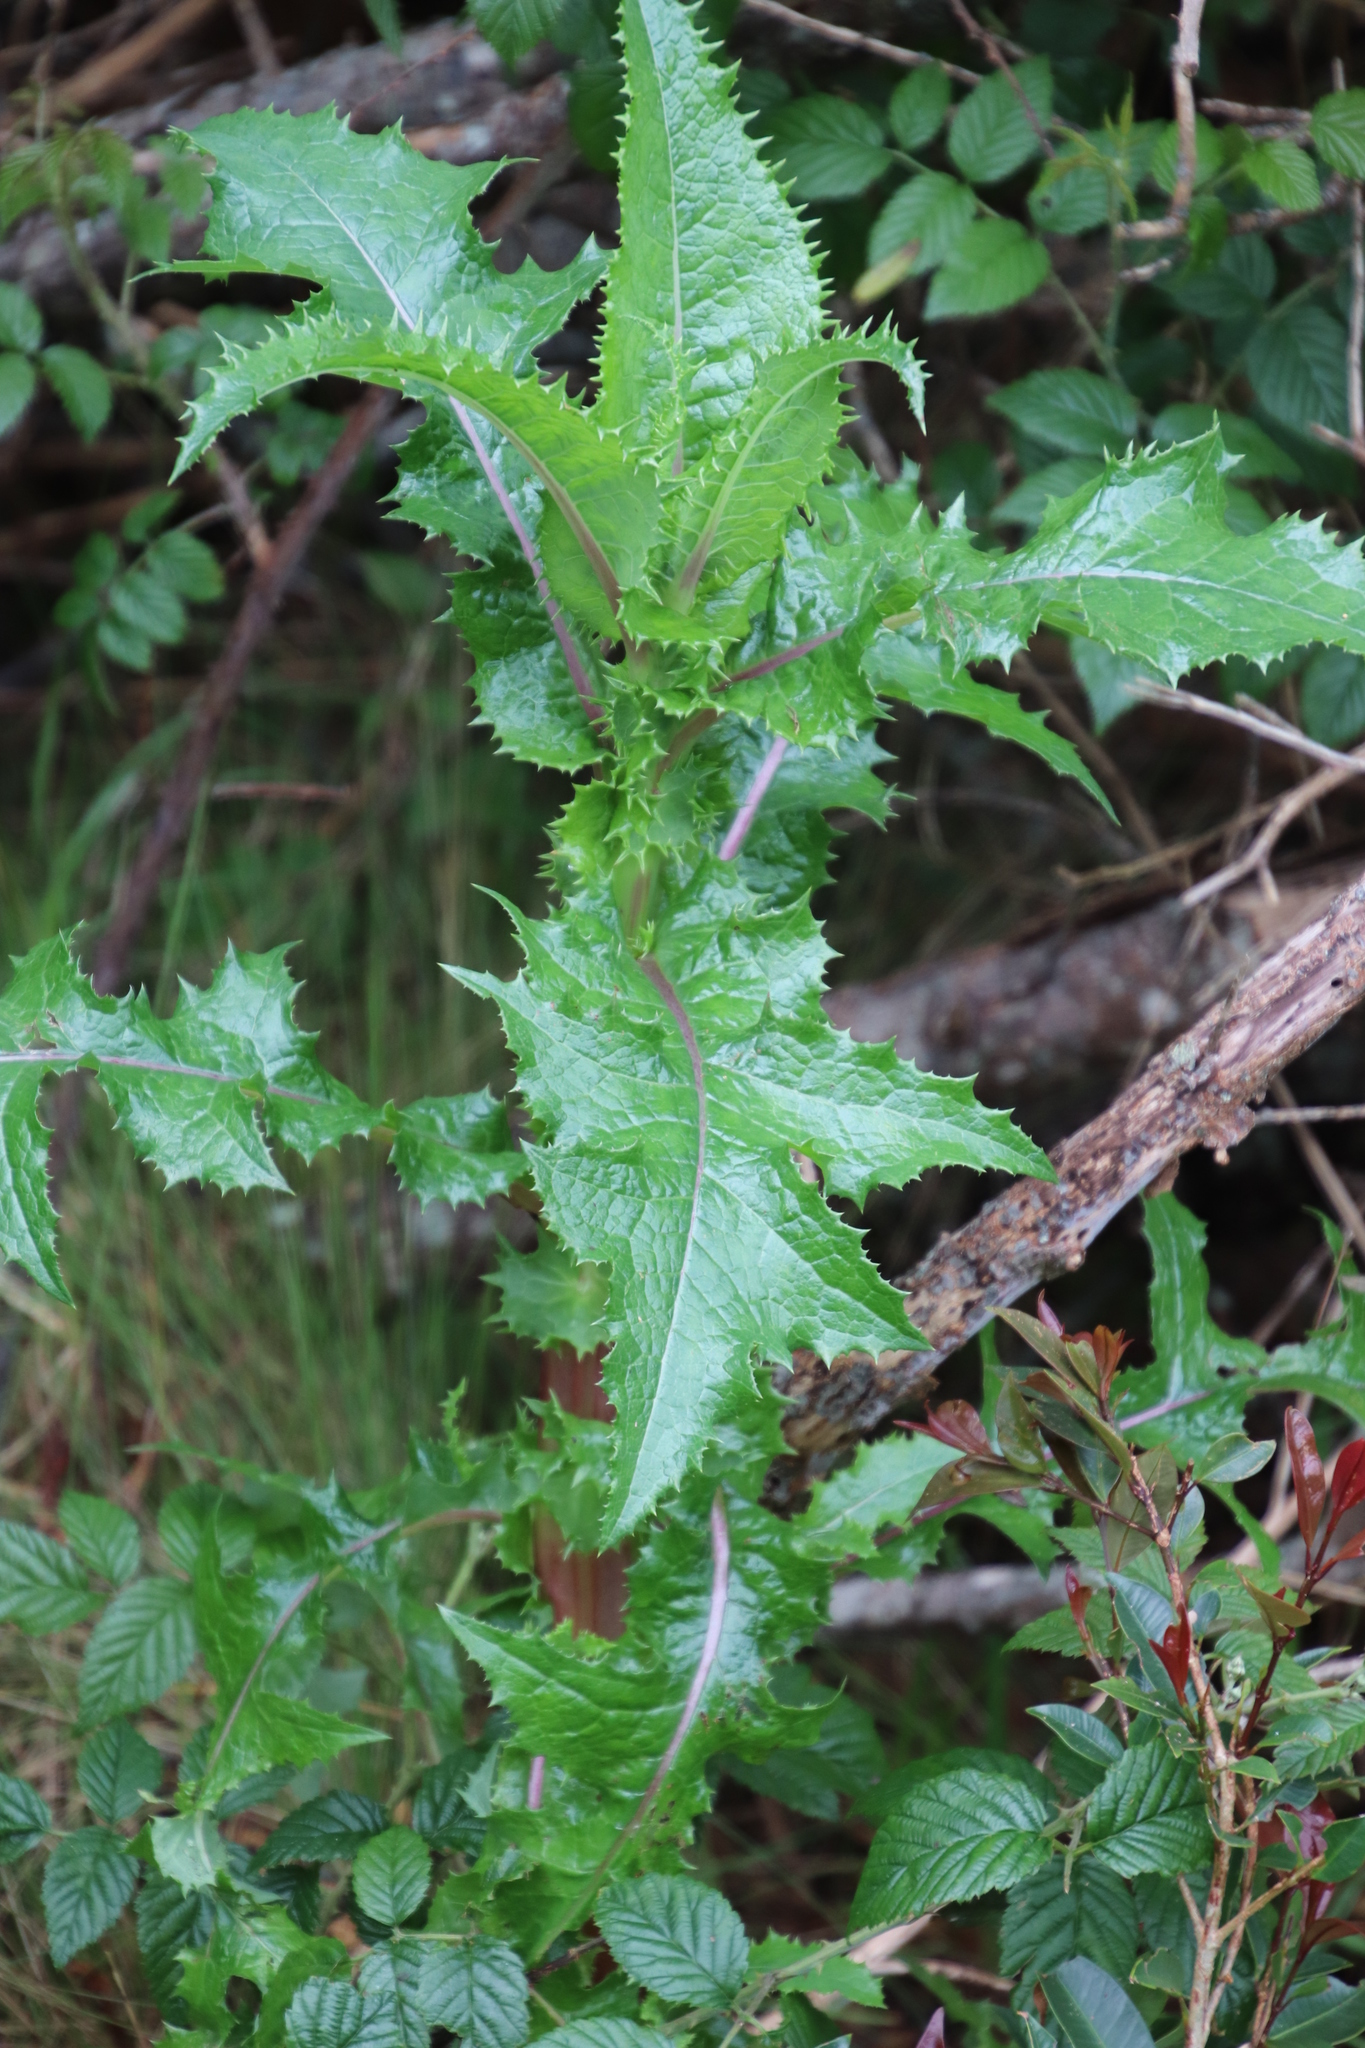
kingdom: Plantae
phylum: Tracheophyta
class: Magnoliopsida
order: Asterales
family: Asteraceae
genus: Sonchus
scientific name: Sonchus asper
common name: Prickly sow-thistle
